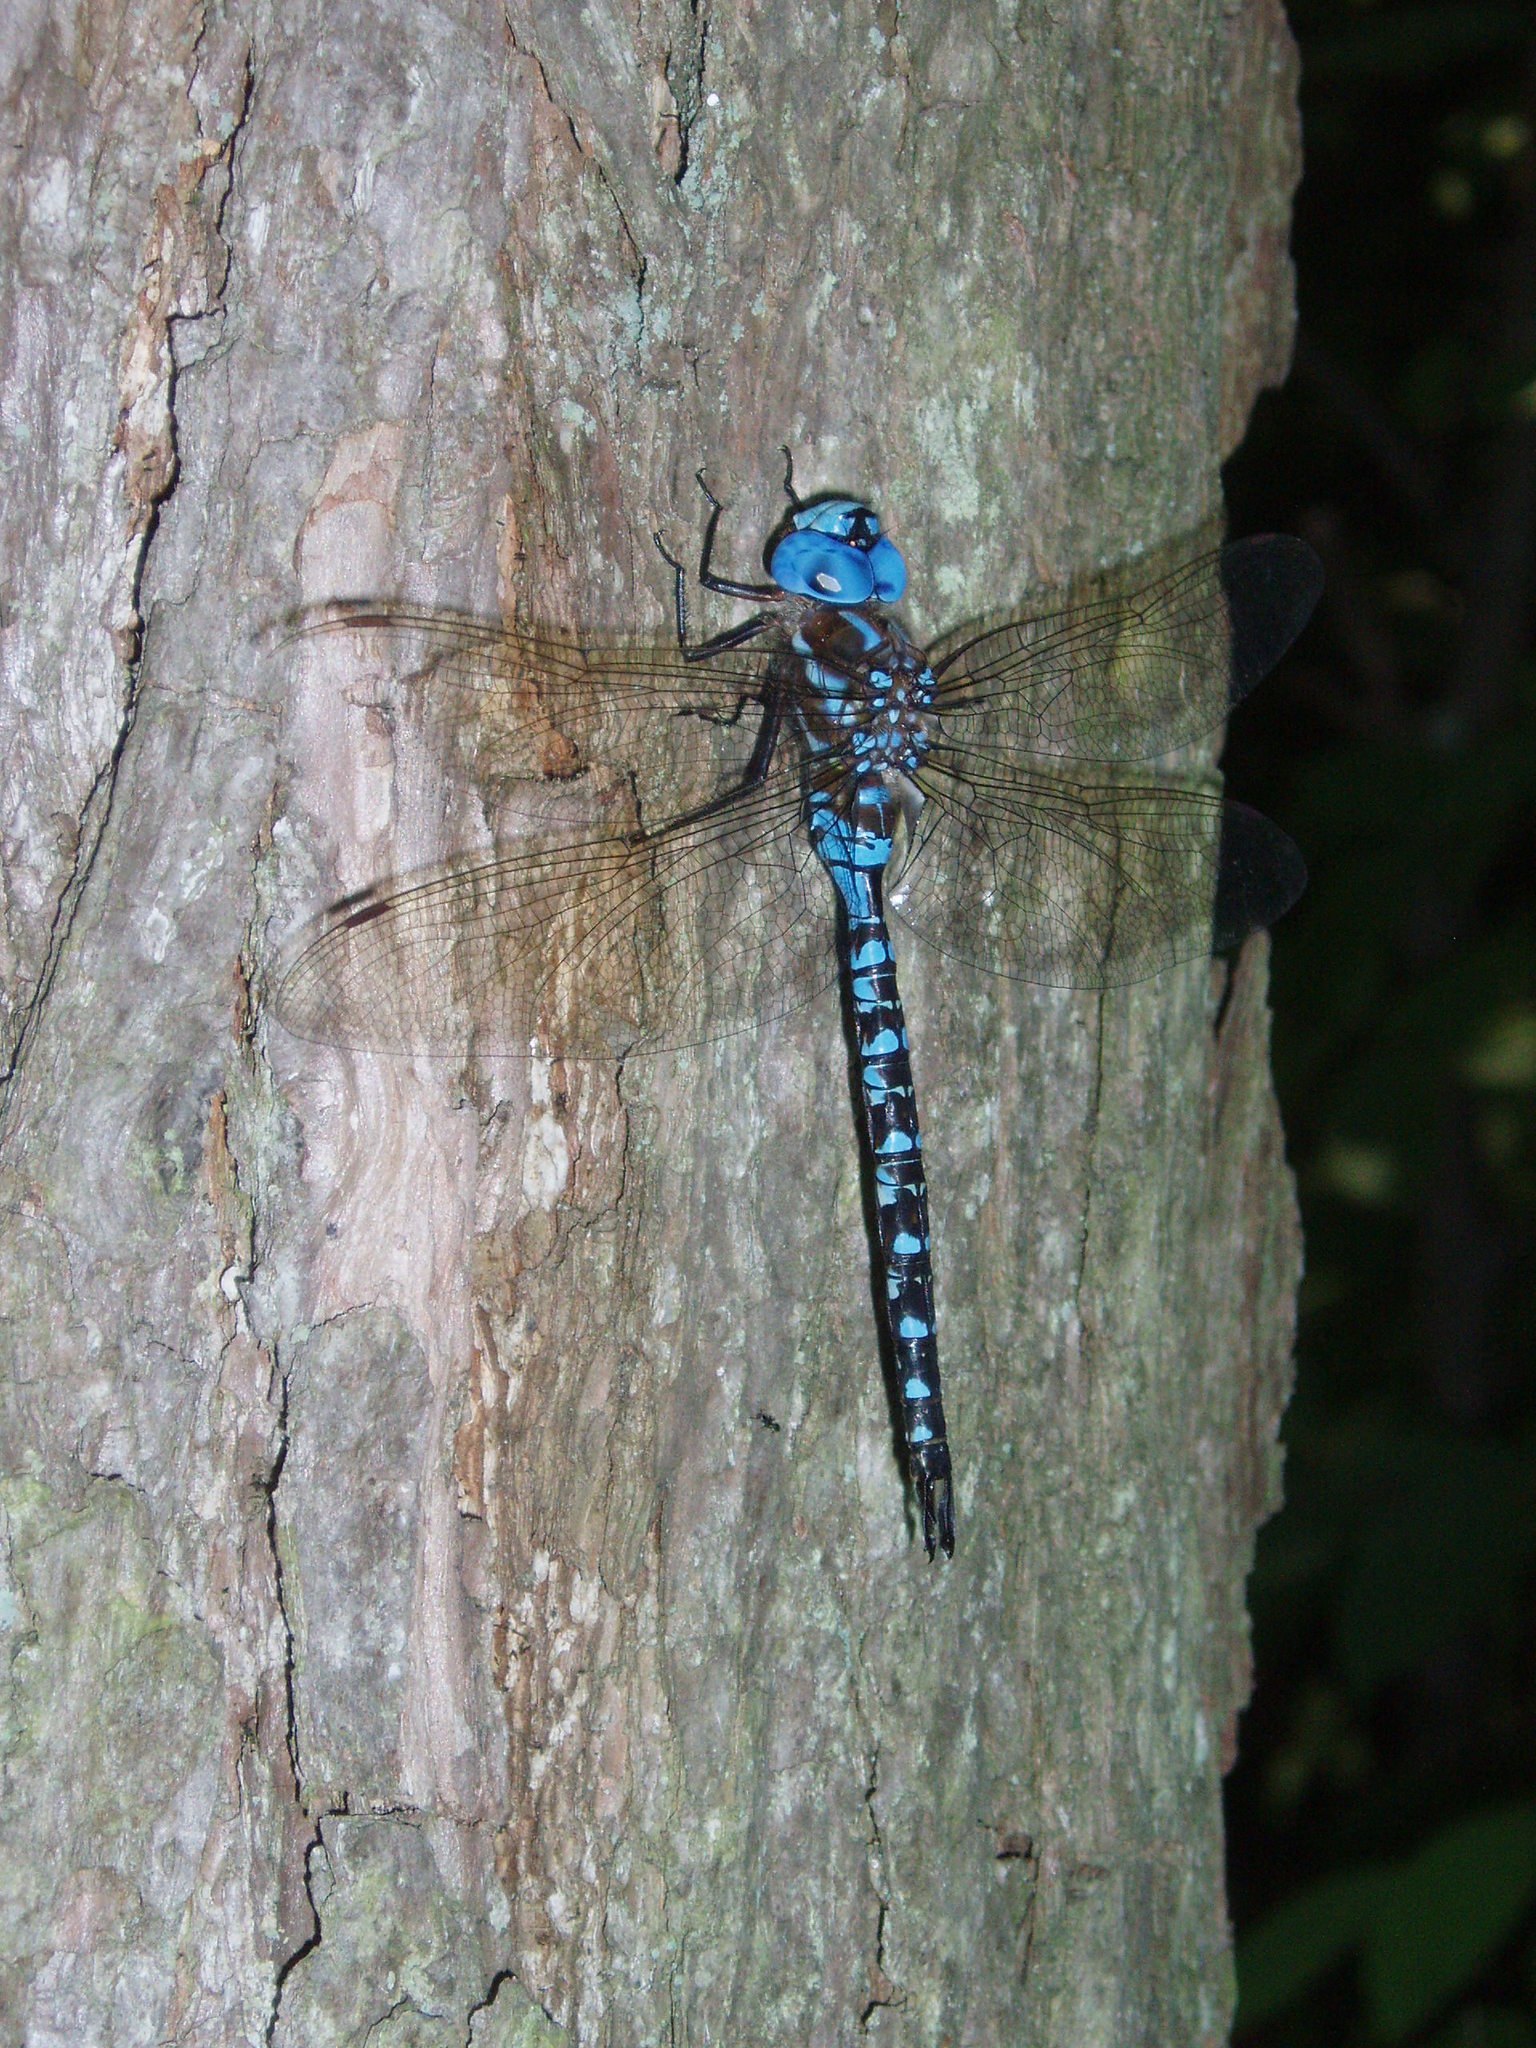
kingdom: Animalia
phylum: Arthropoda
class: Insecta
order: Odonata
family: Aeshnidae
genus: Rhionaeschna
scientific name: Rhionaeschna mutata
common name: Spatterdock darner
